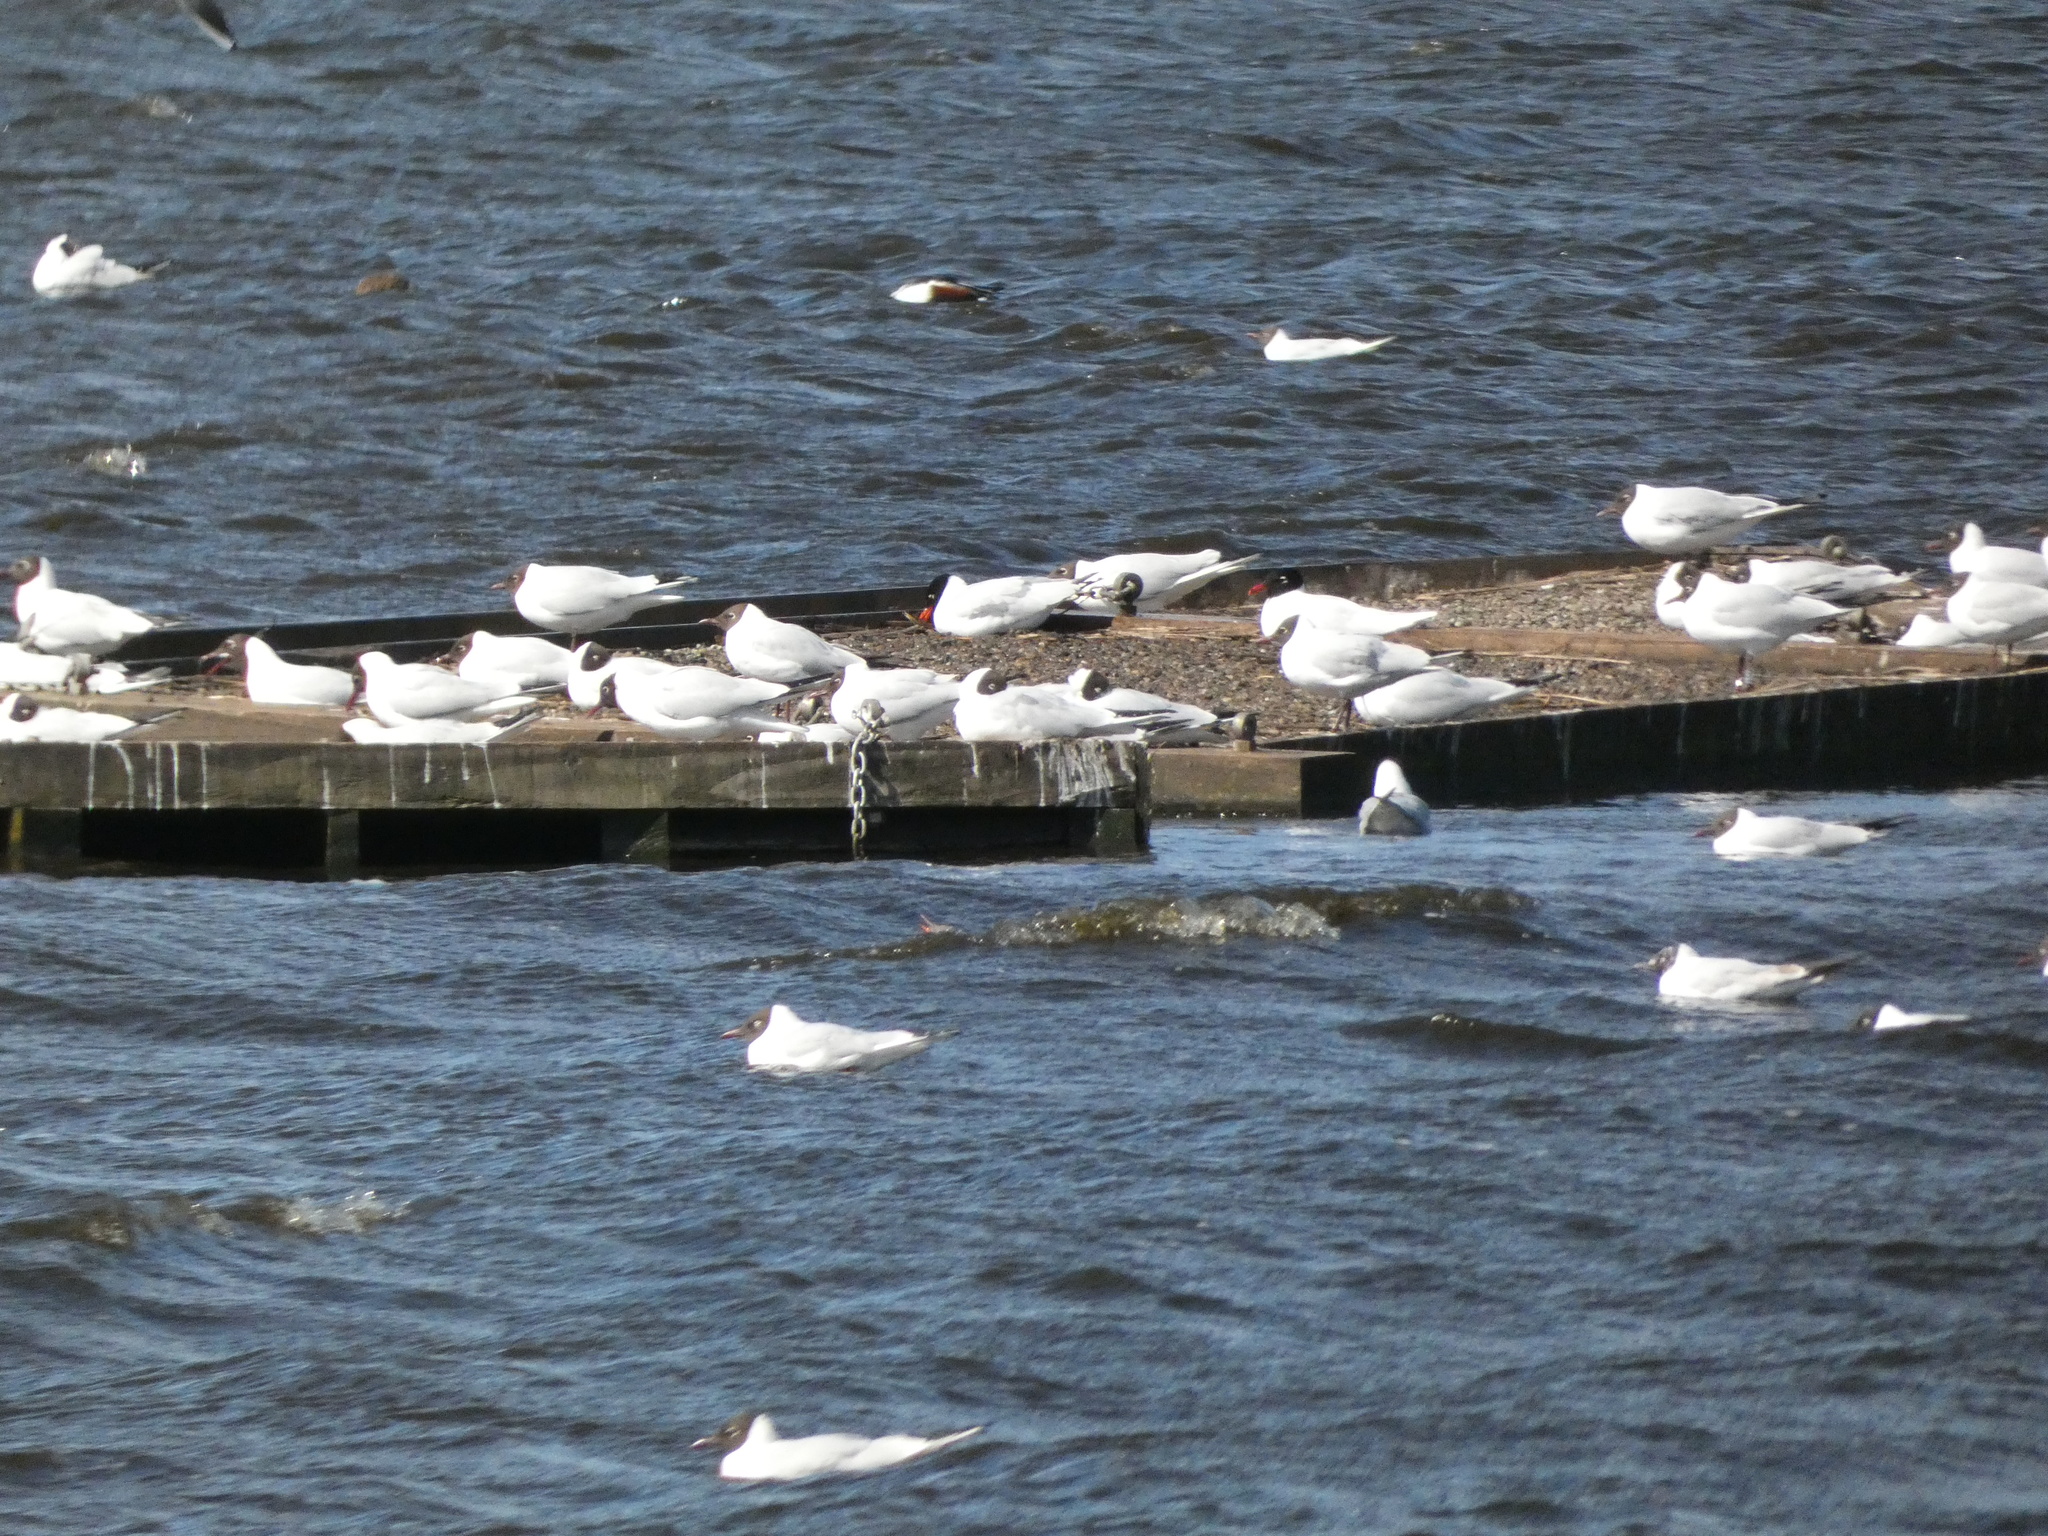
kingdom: Animalia
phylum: Chordata
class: Aves
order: Charadriiformes
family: Laridae
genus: Ichthyaetus
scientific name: Ichthyaetus melanocephalus
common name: Mediterranean gull
